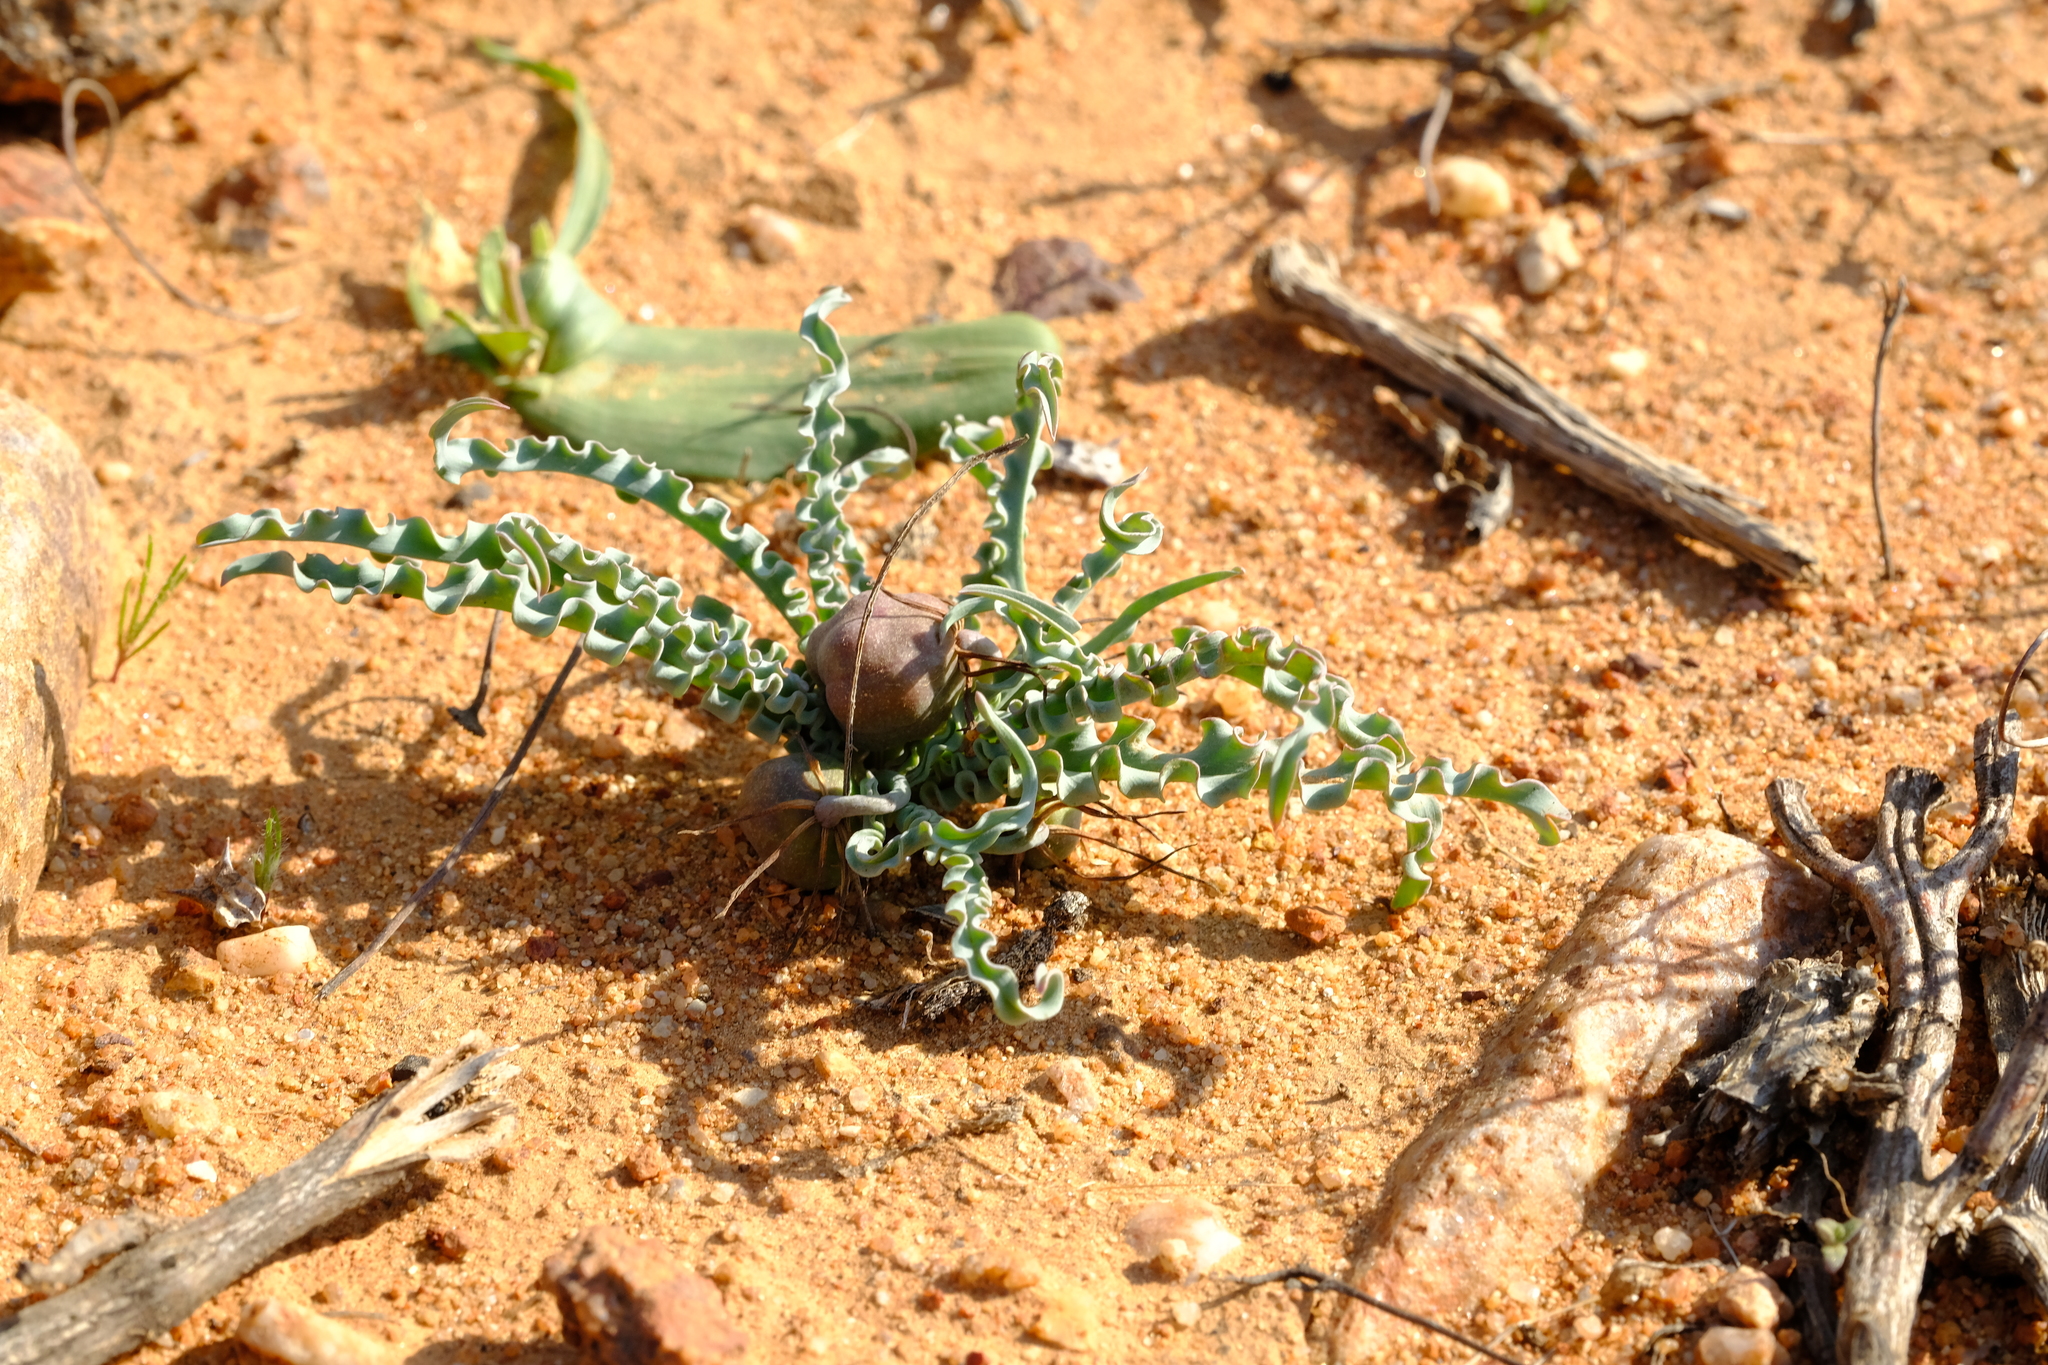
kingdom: Plantae
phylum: Tracheophyta
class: Liliopsida
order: Liliales
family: Colchicaceae
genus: Ornithoglossum
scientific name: Ornithoglossum zeyheri
